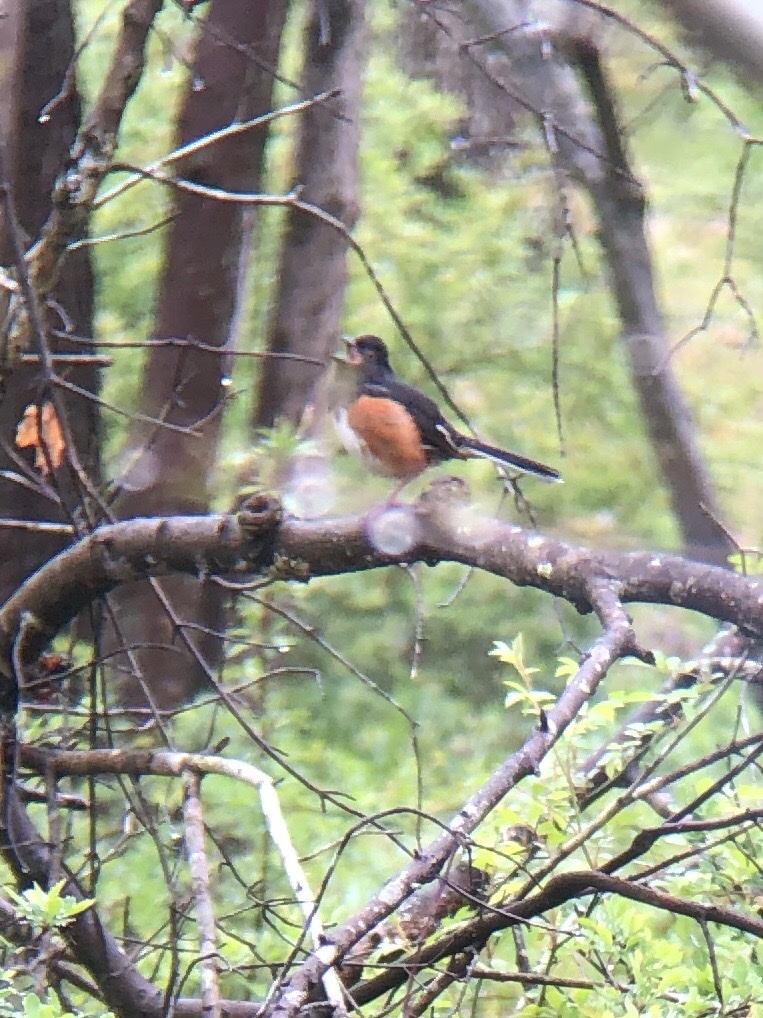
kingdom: Animalia
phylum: Chordata
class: Aves
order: Passeriformes
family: Passerellidae
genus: Pipilo
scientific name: Pipilo erythrophthalmus
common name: Eastern towhee
